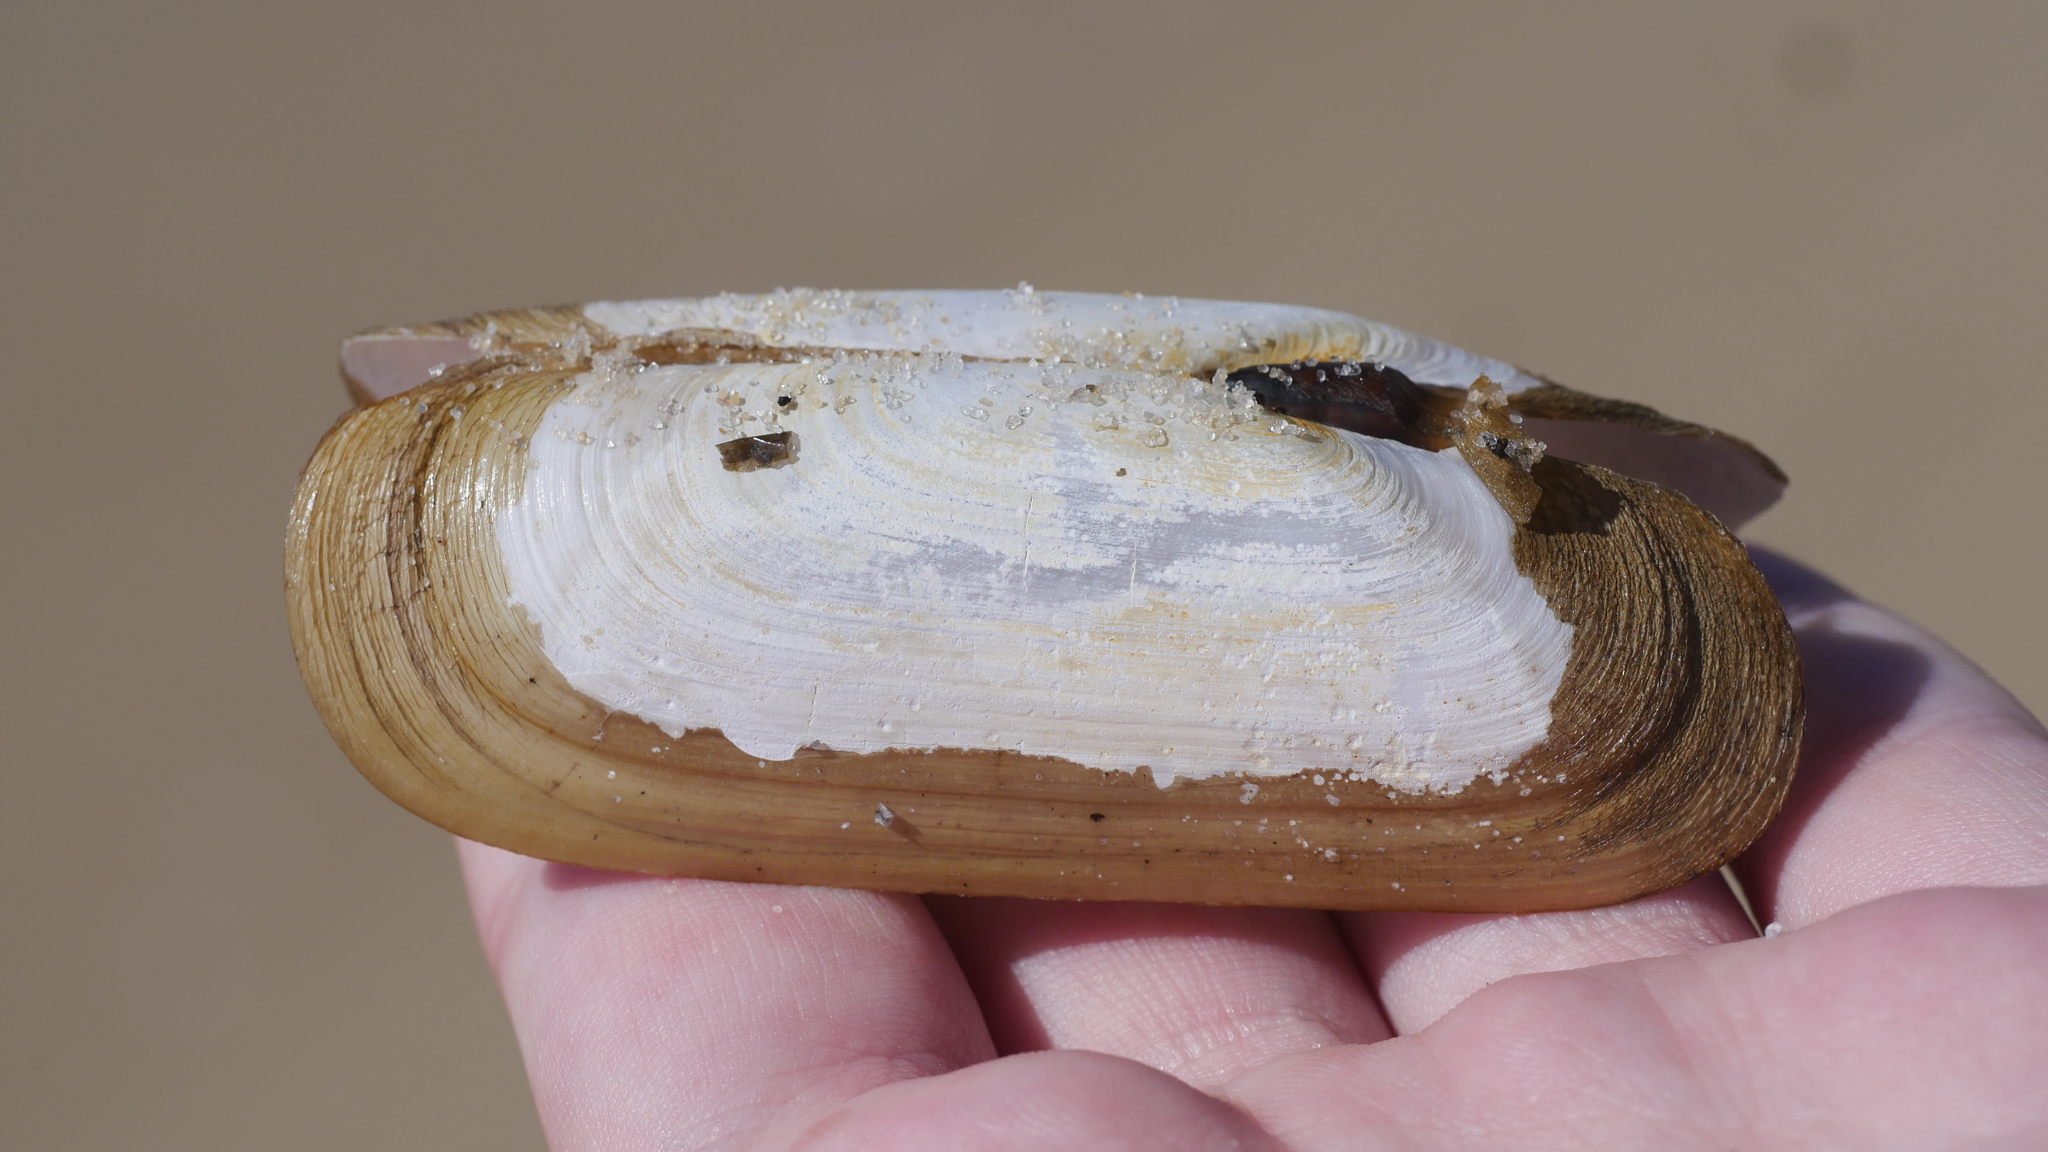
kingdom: Animalia
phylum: Mollusca
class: Bivalvia
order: Cardiida
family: Solecurtidae
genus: Tagelus
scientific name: Tagelus plebeius
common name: Stout tagelus
